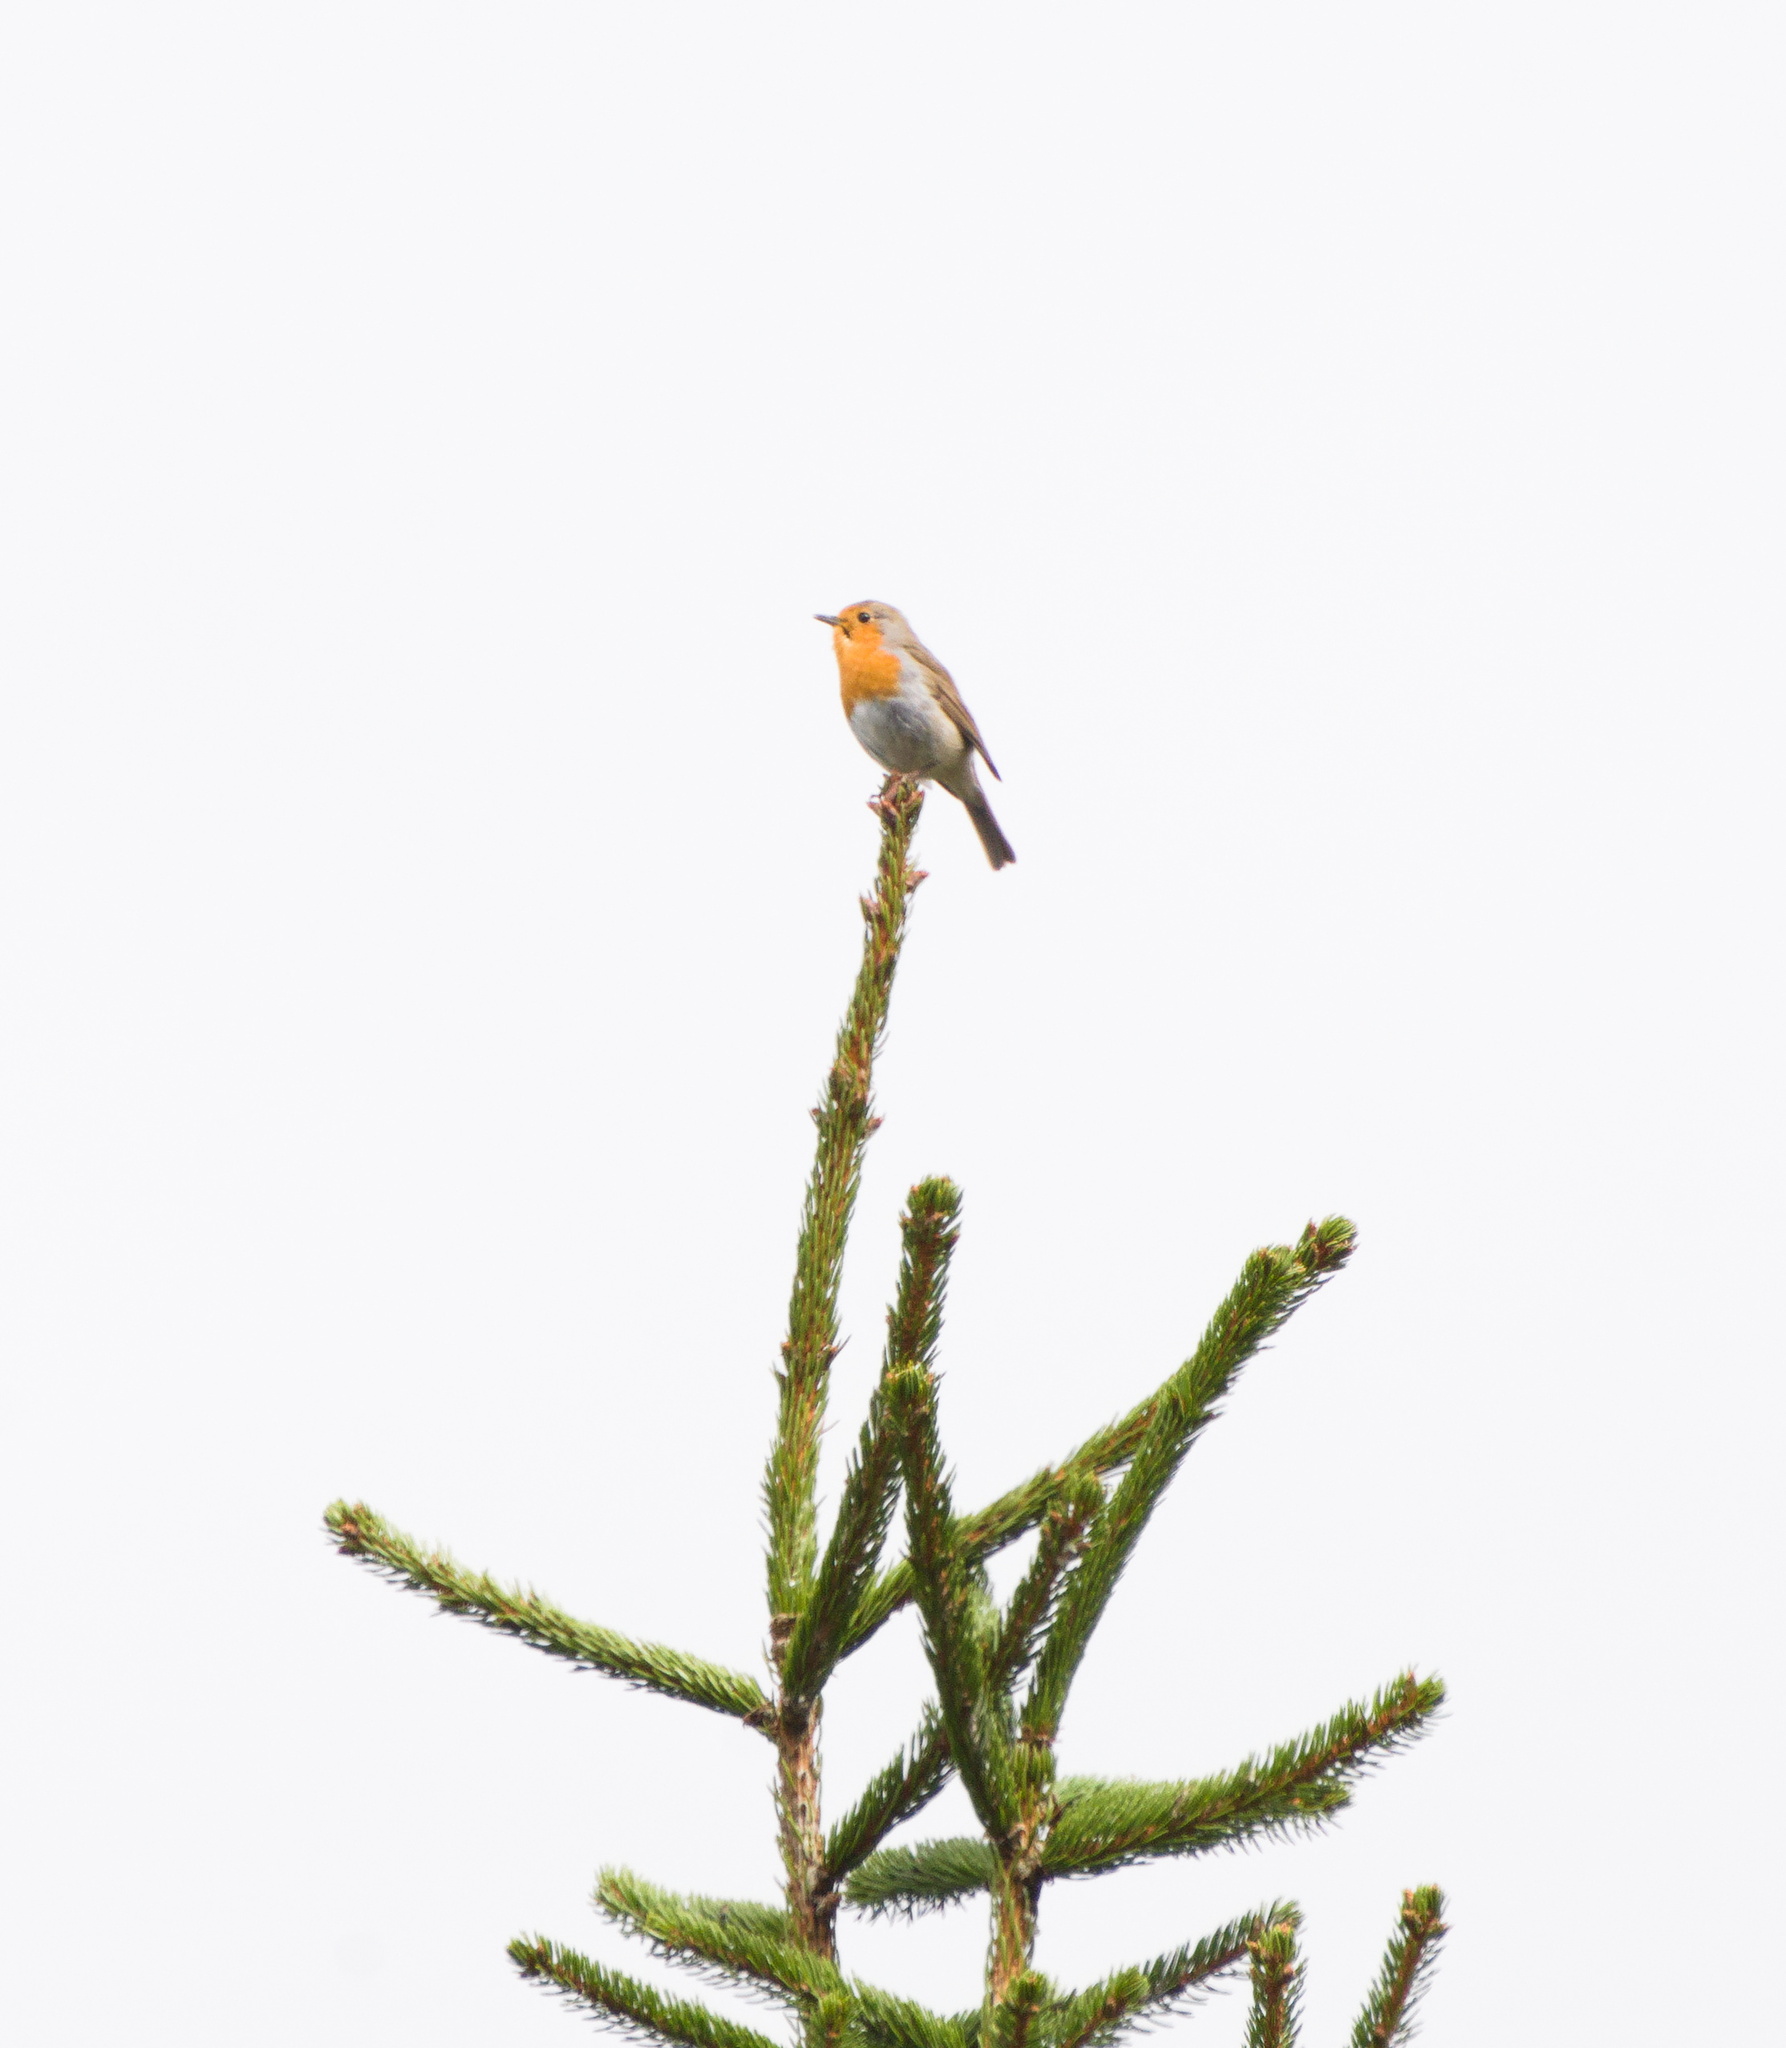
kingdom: Animalia
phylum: Chordata
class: Aves
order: Passeriformes
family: Muscicapidae
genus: Erithacus
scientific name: Erithacus rubecula
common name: European robin
